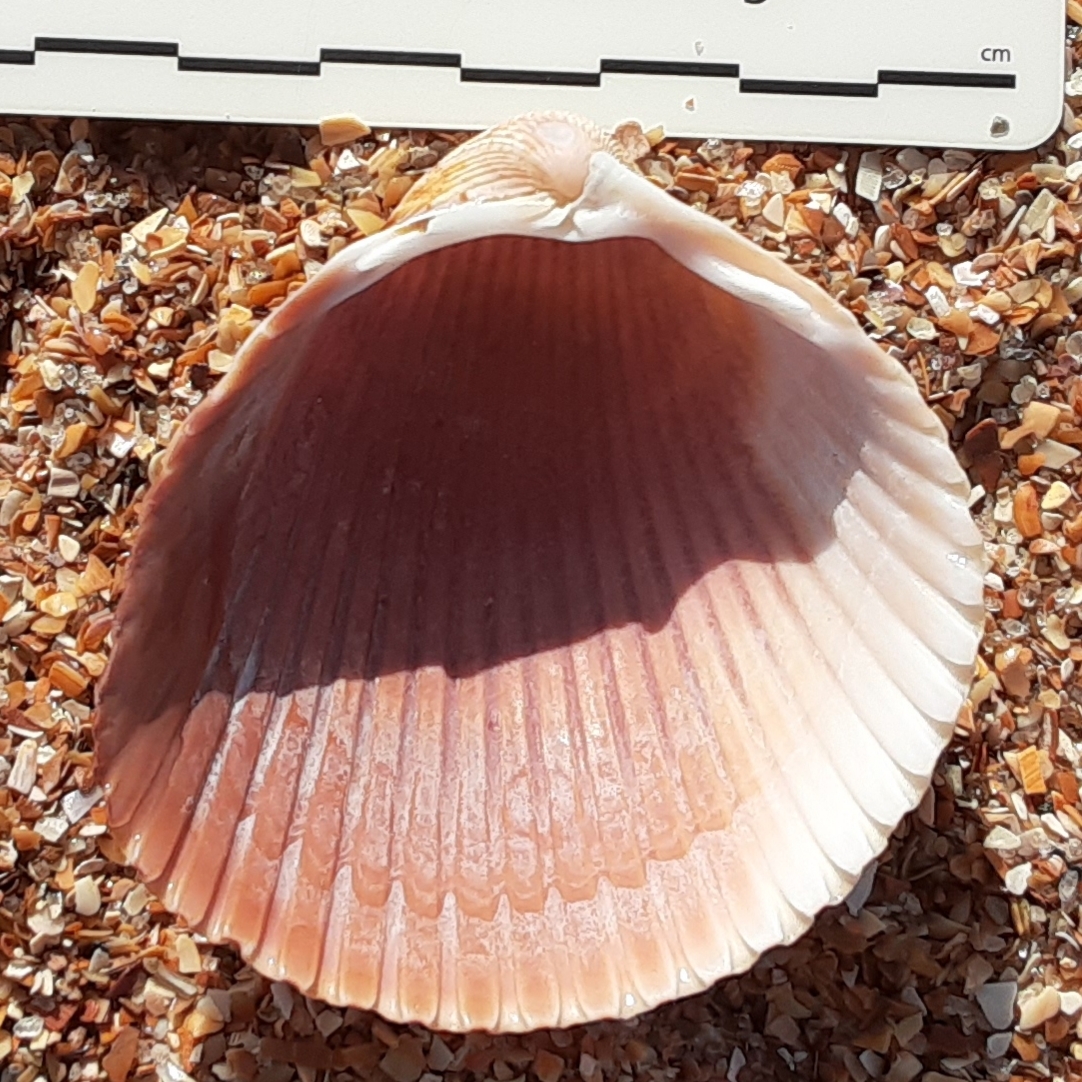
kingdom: Animalia
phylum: Mollusca
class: Bivalvia
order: Cardiida
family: Cardiidae
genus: Dinocardium
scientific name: Dinocardium robustum
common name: Atlantic giant cockle
